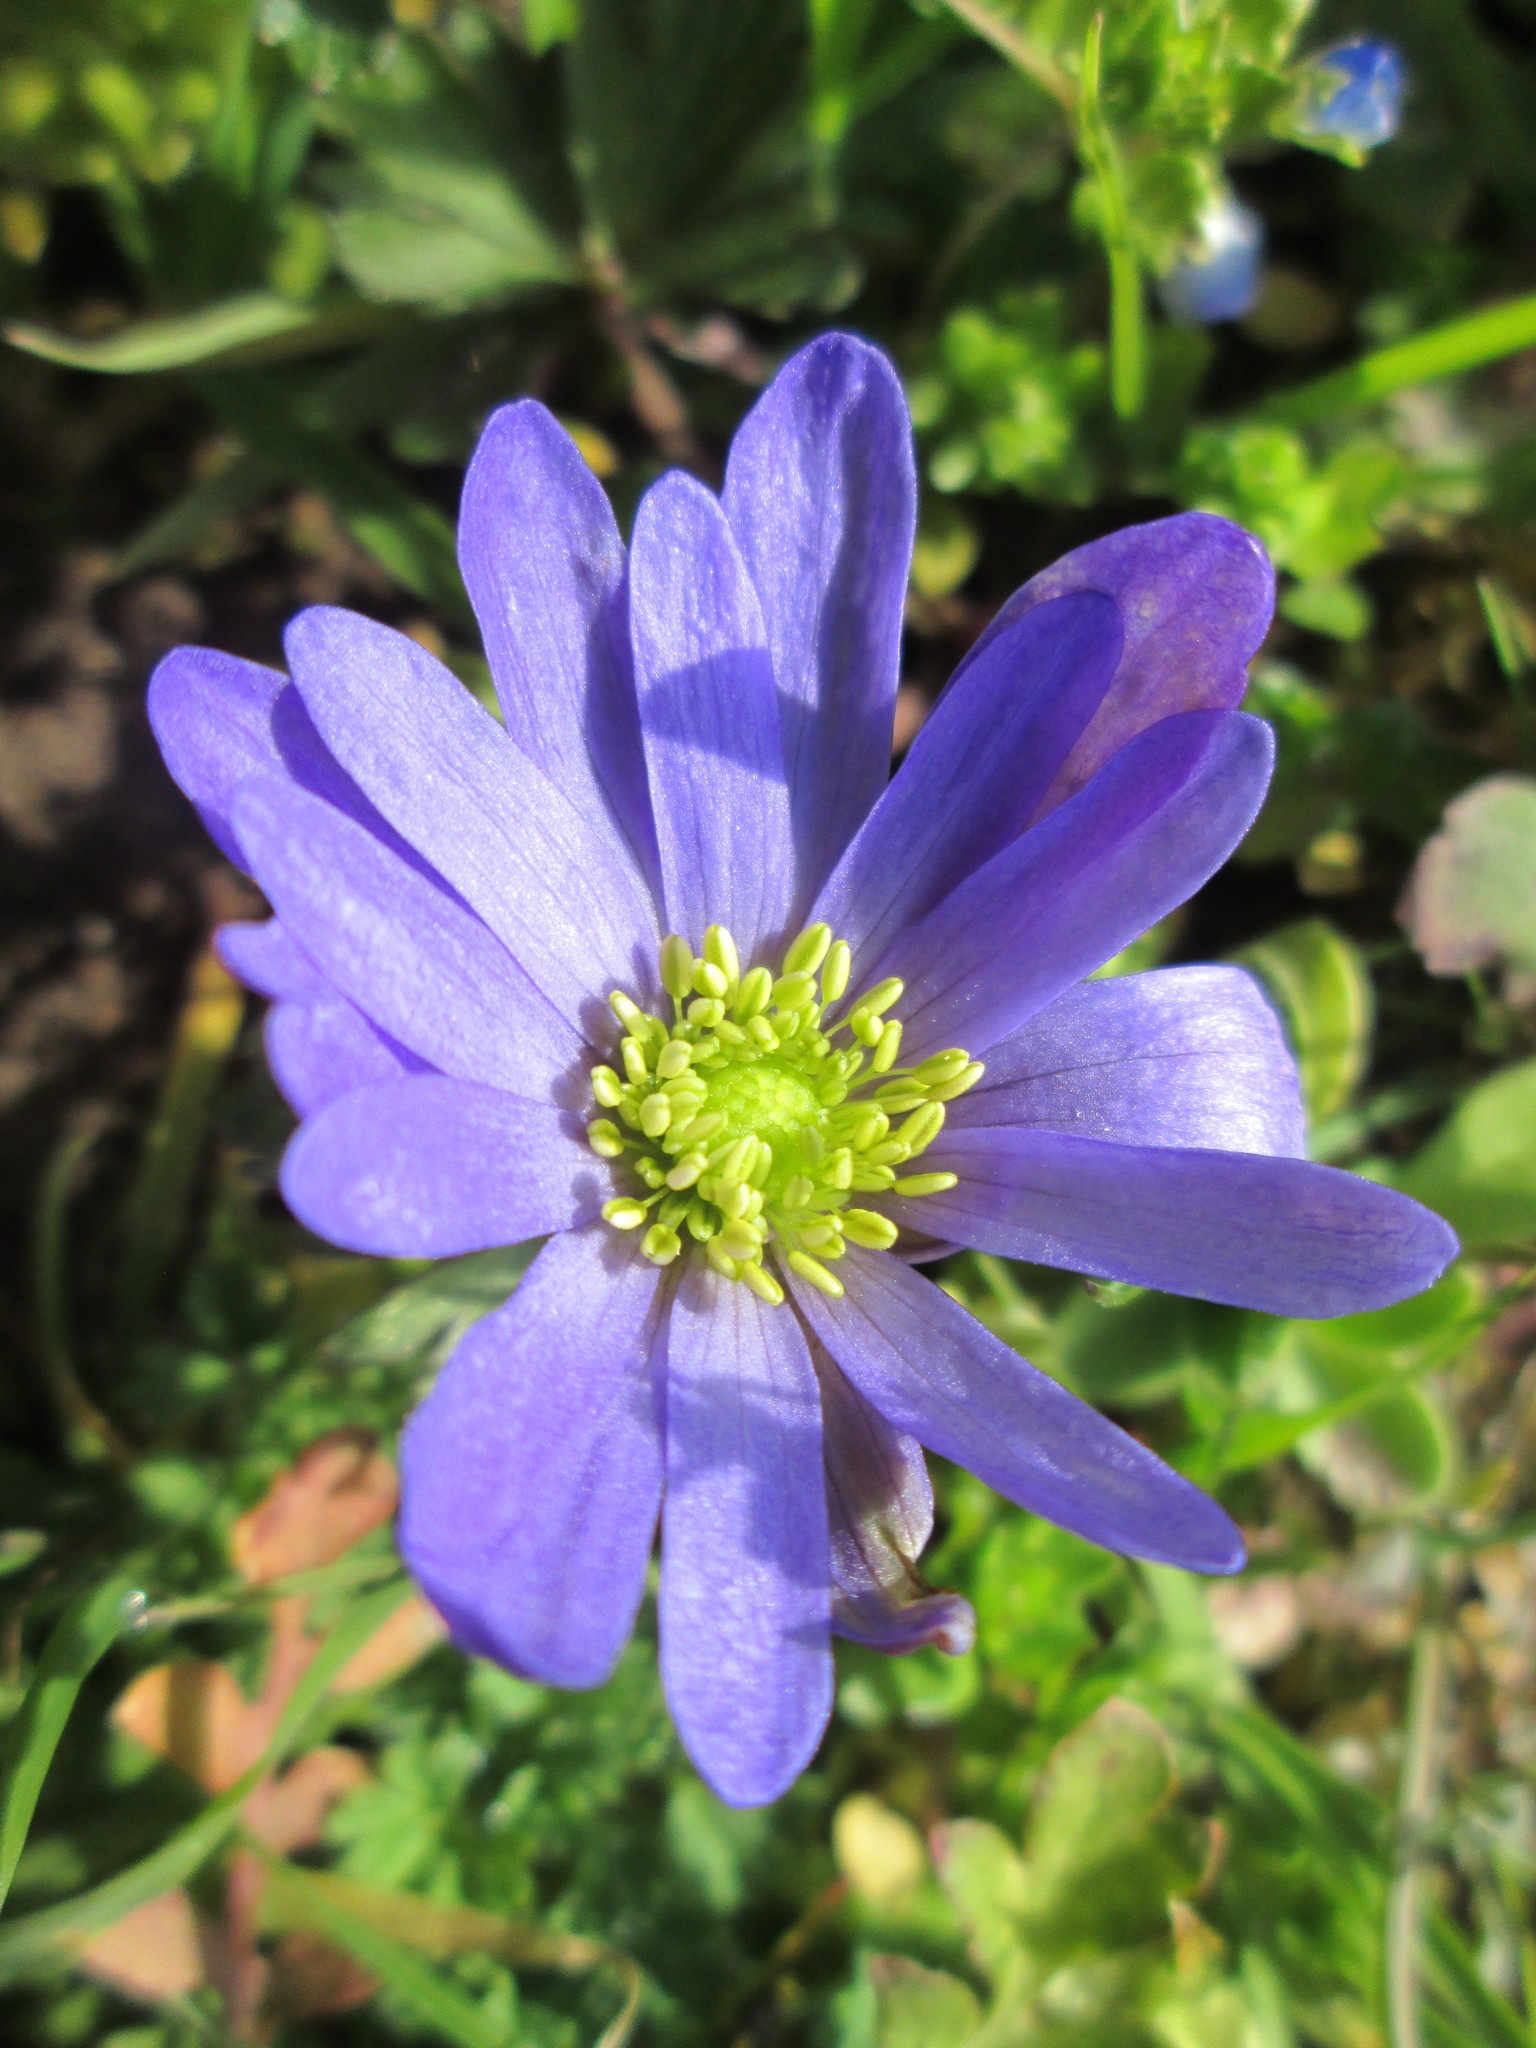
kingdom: Plantae
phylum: Tracheophyta
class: Magnoliopsida
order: Ranunculales
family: Ranunculaceae
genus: Anemone
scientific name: Anemone blanda
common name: Balkan anemone
